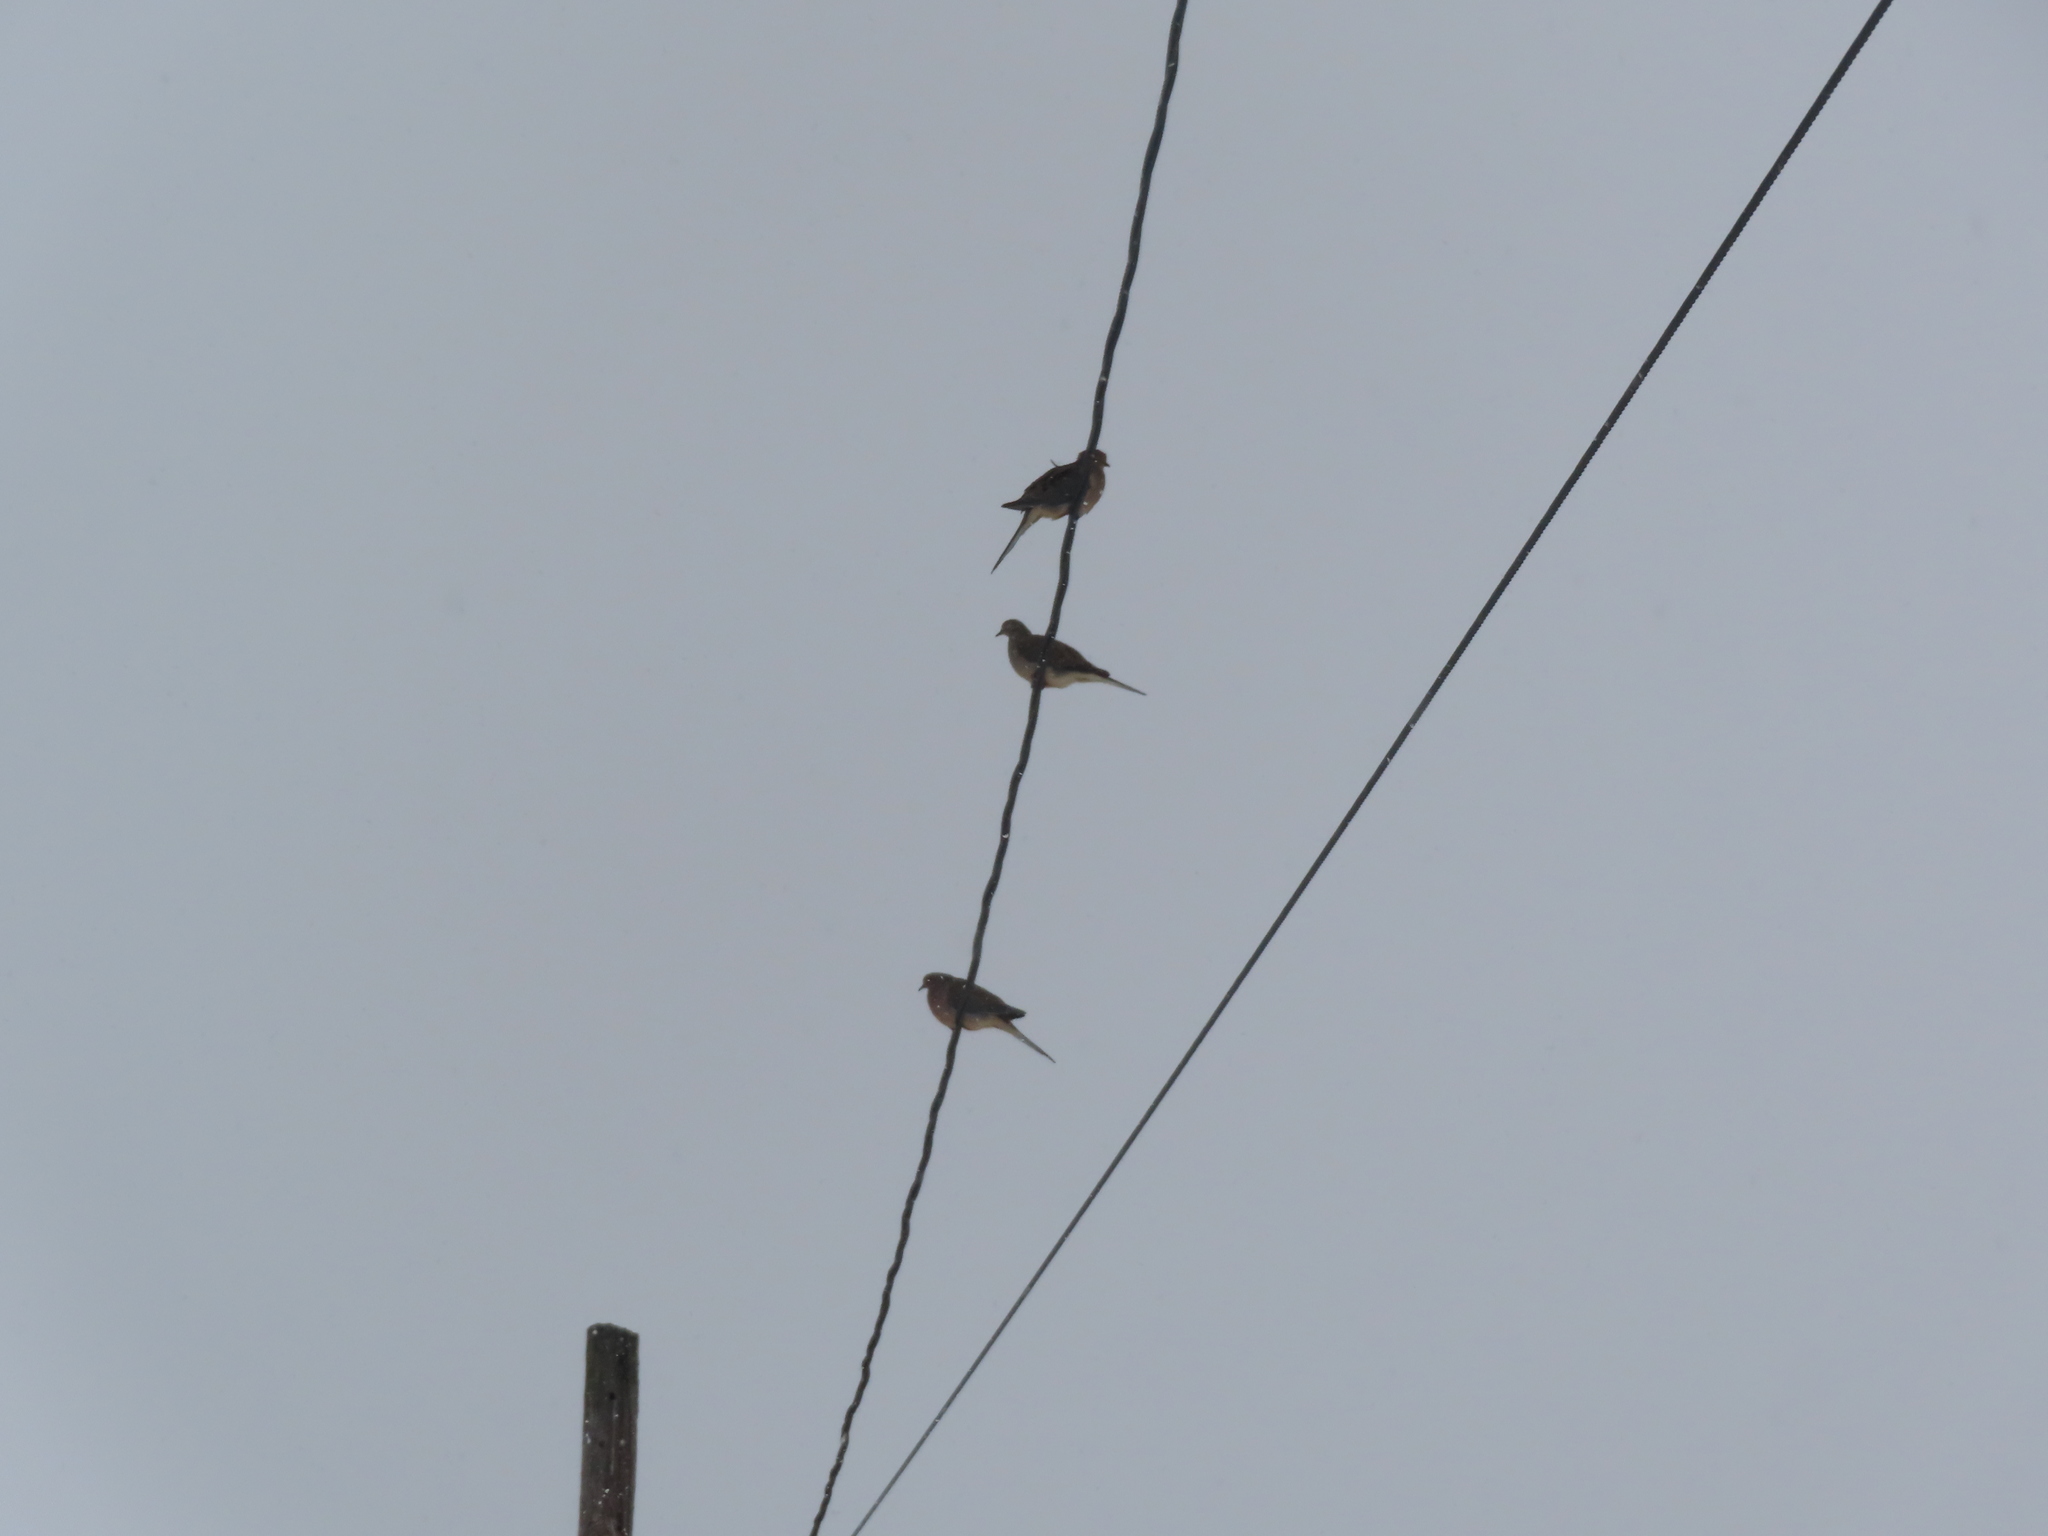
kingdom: Animalia
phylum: Chordata
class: Aves
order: Columbiformes
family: Columbidae
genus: Zenaida
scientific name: Zenaida macroura
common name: Mourning dove
